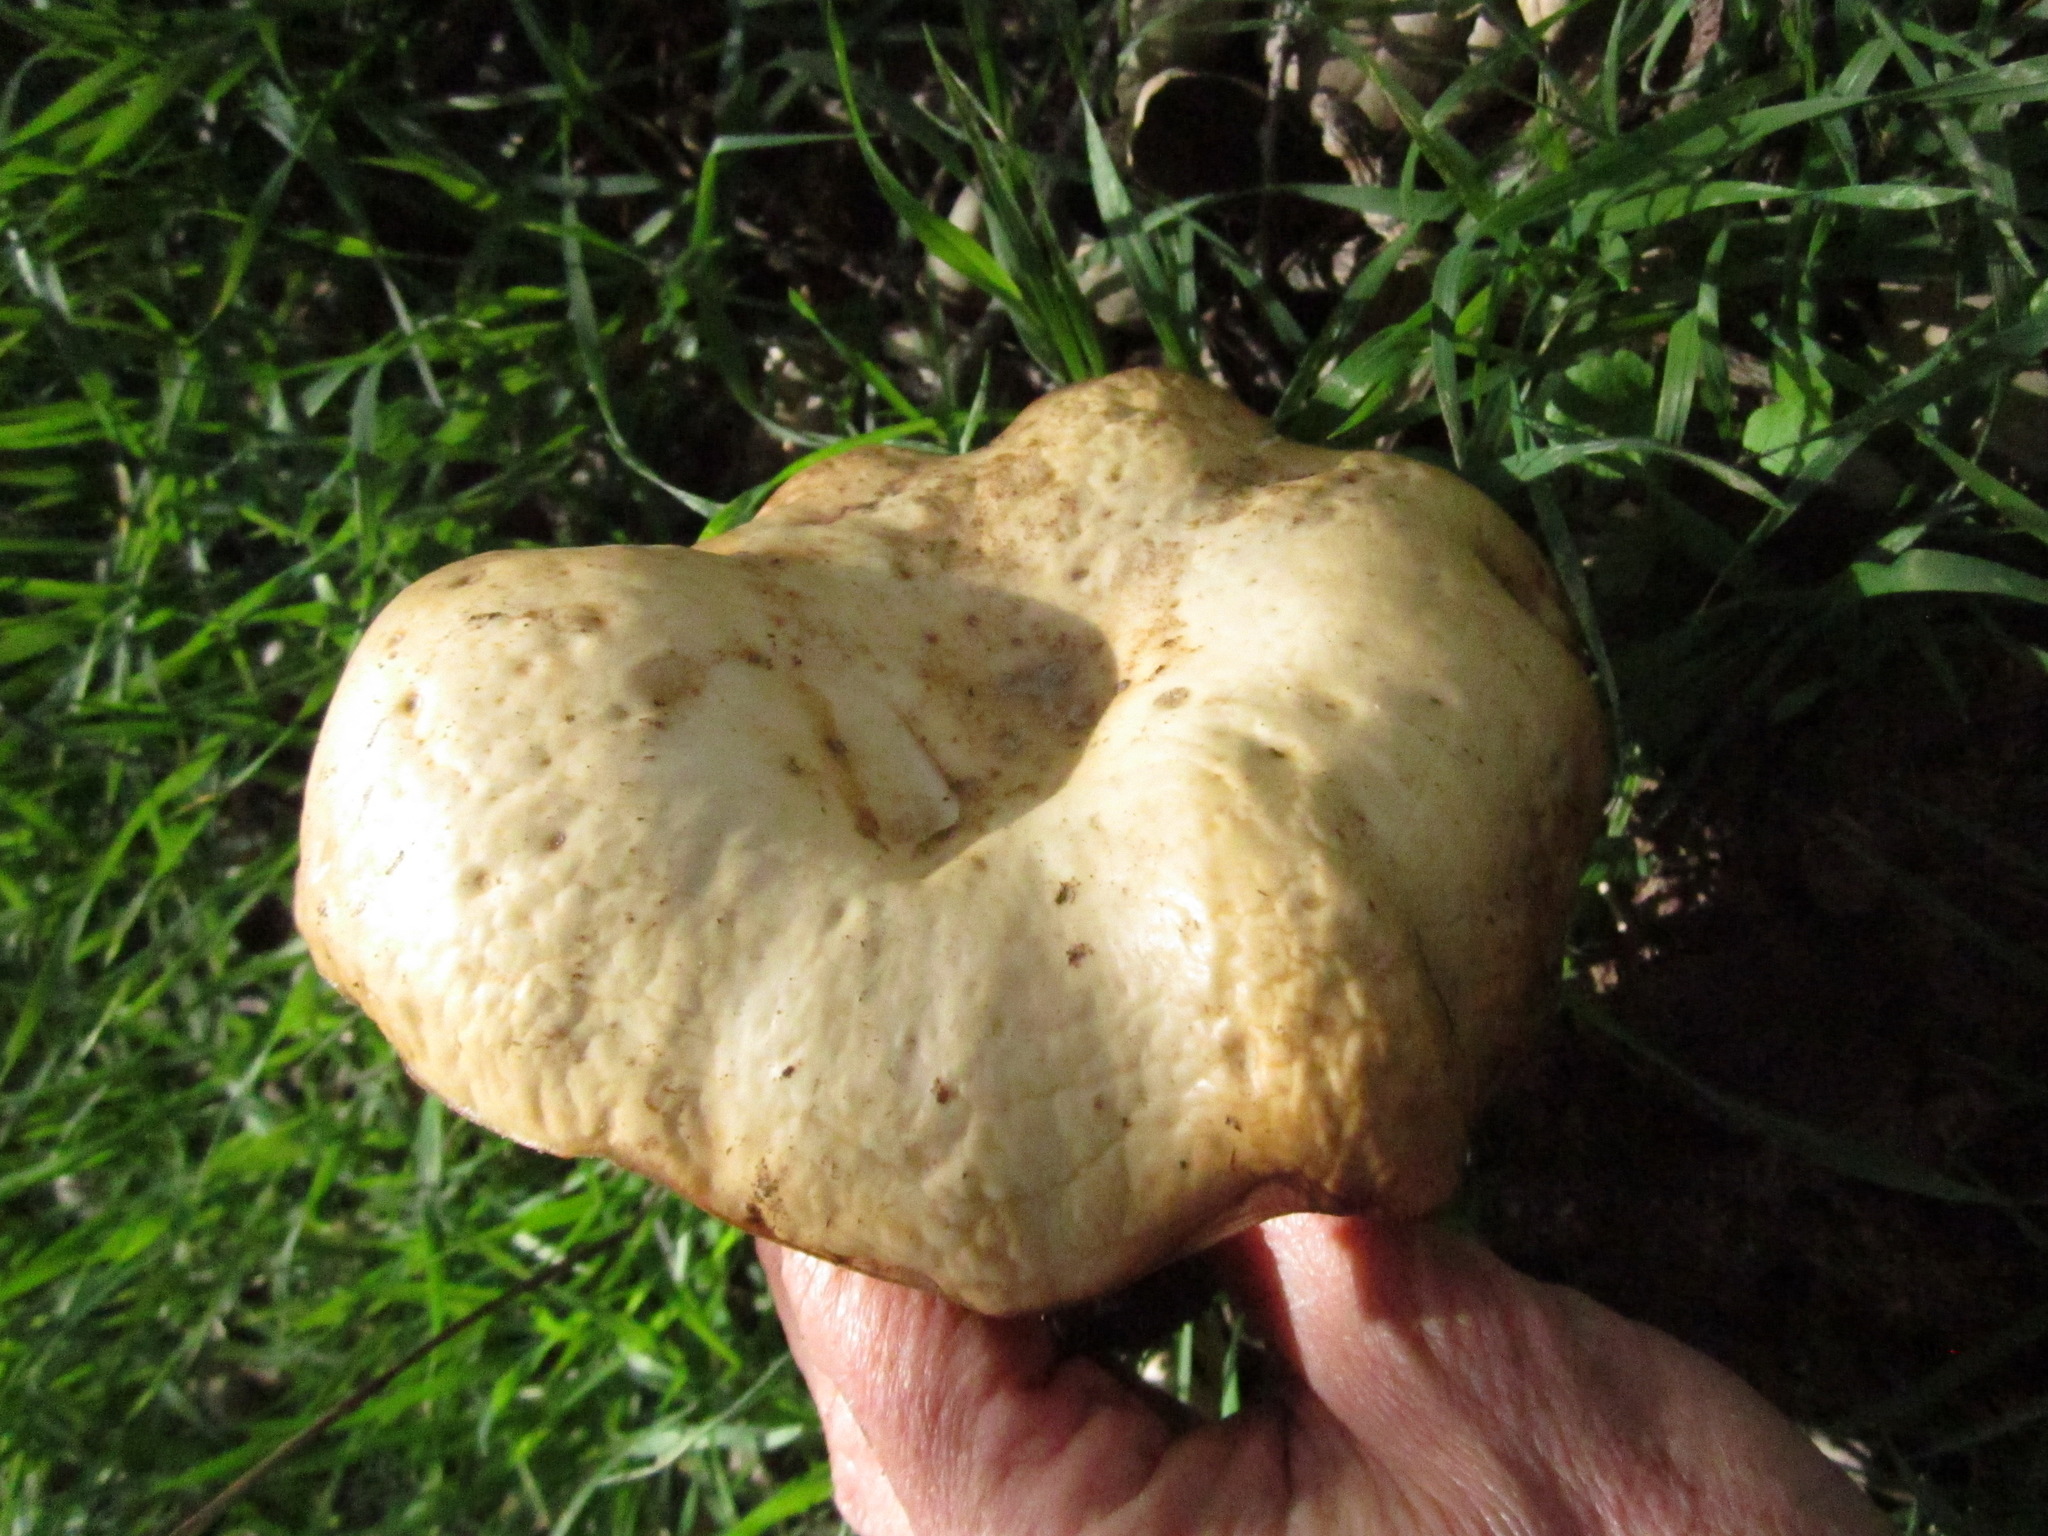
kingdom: Fungi
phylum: Basidiomycota
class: Agaricomycetes
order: Agaricales
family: Tricholomataceae
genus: Collybia
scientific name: Collybia
